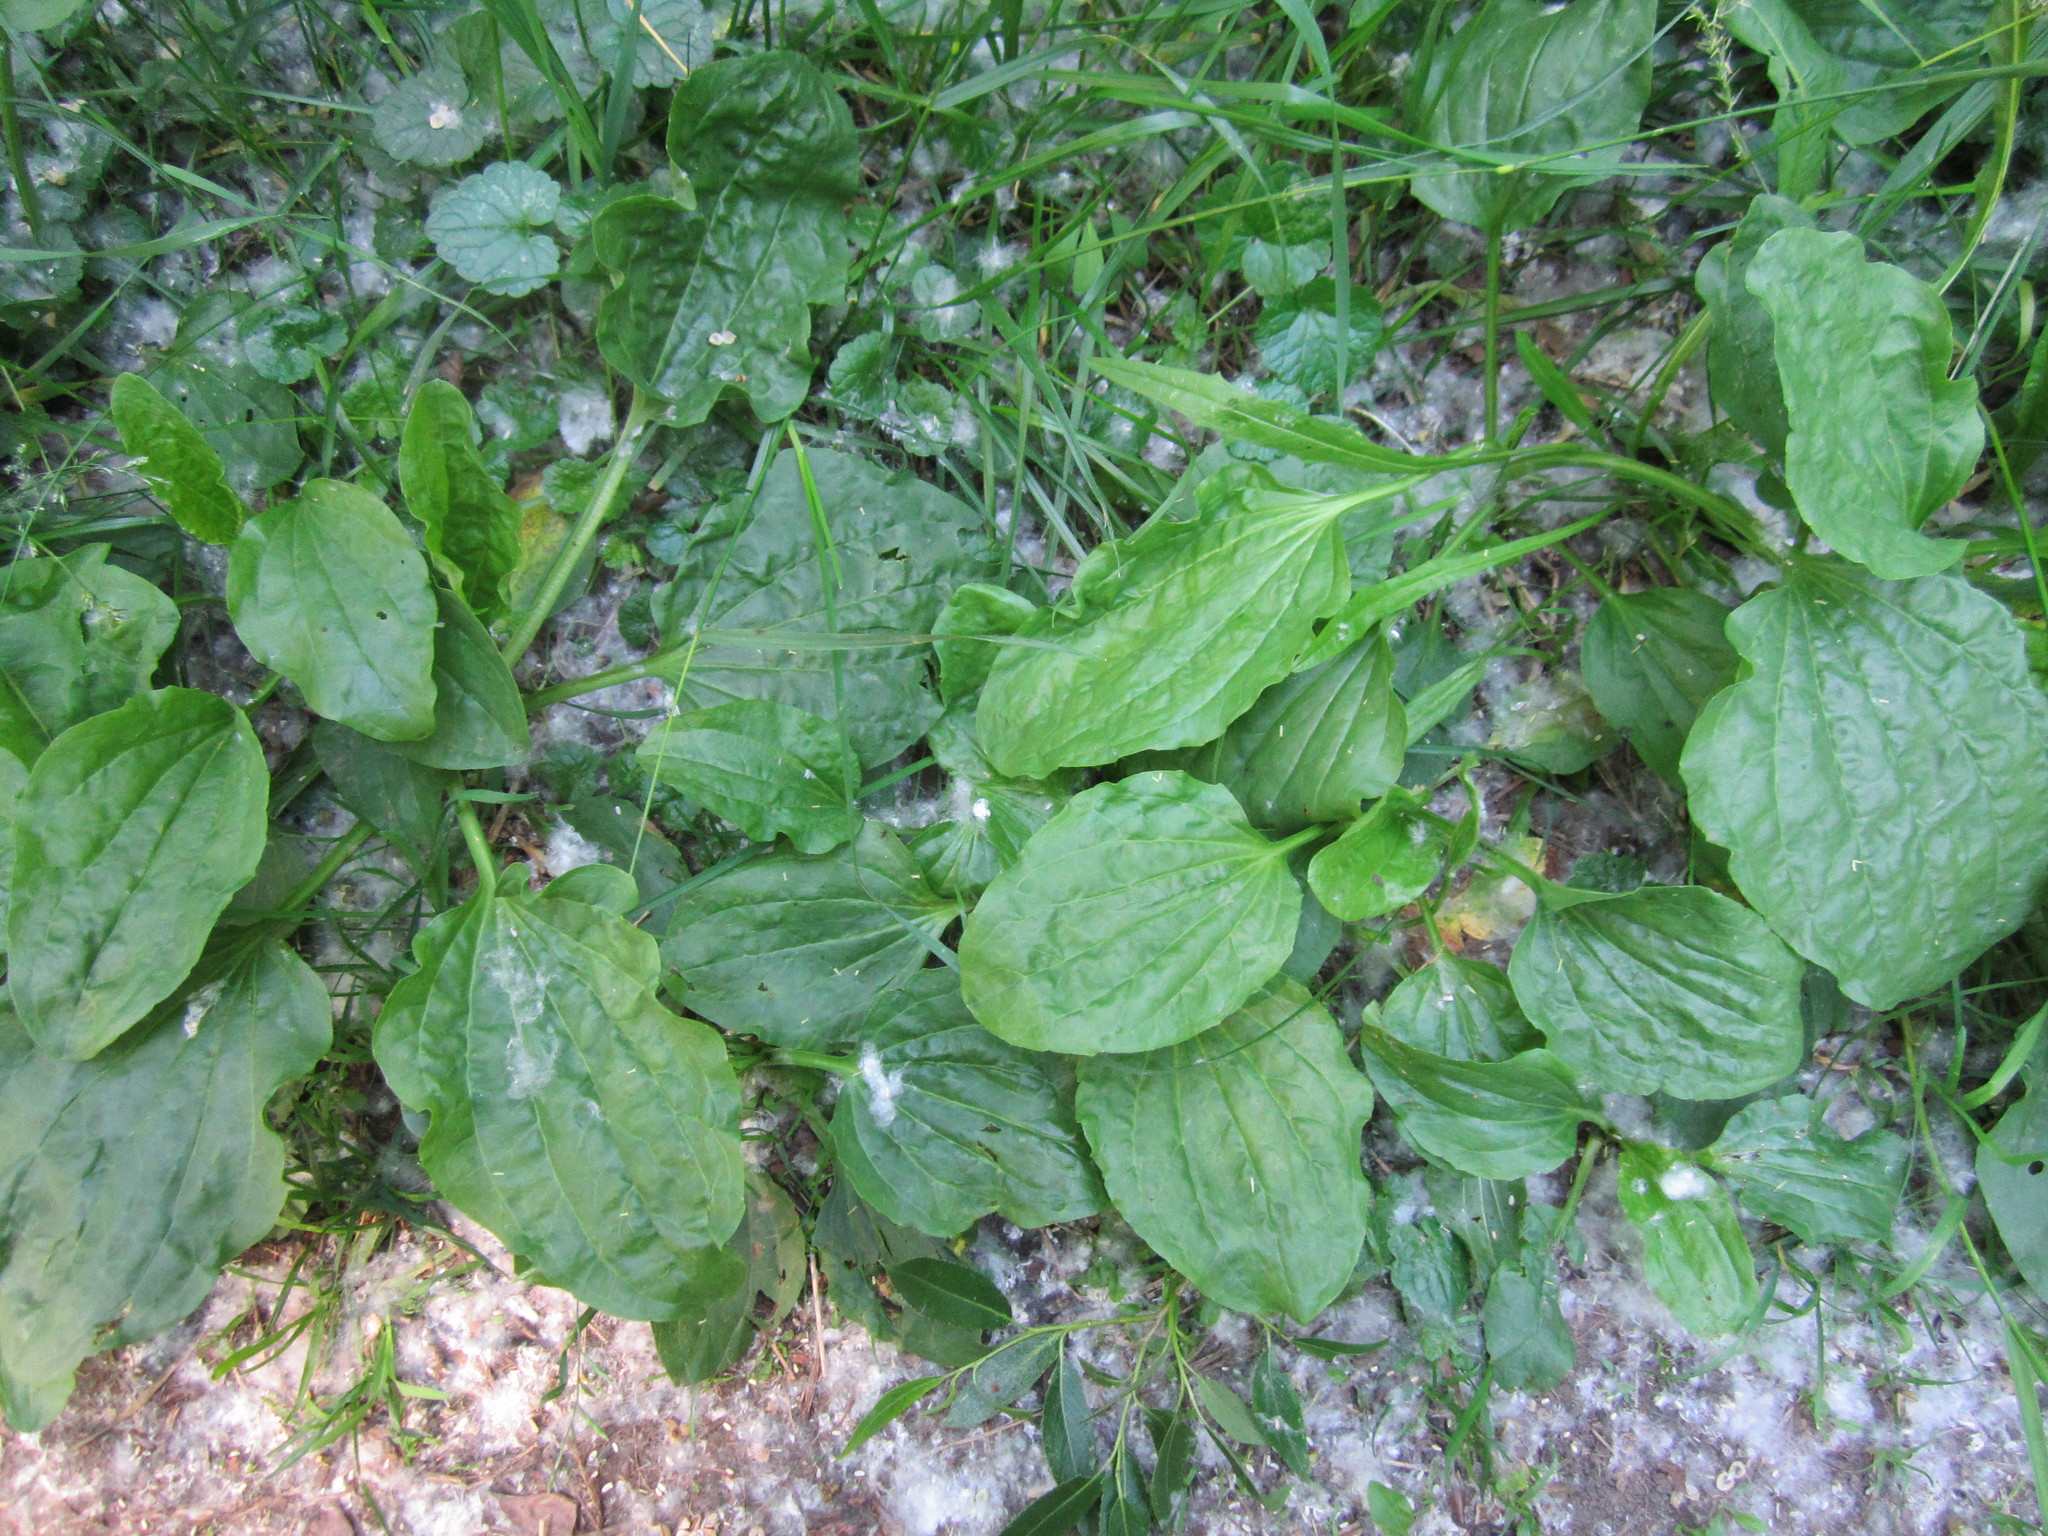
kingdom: Plantae
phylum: Tracheophyta
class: Magnoliopsida
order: Lamiales
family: Plantaginaceae
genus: Plantago
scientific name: Plantago major
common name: Common plantain
